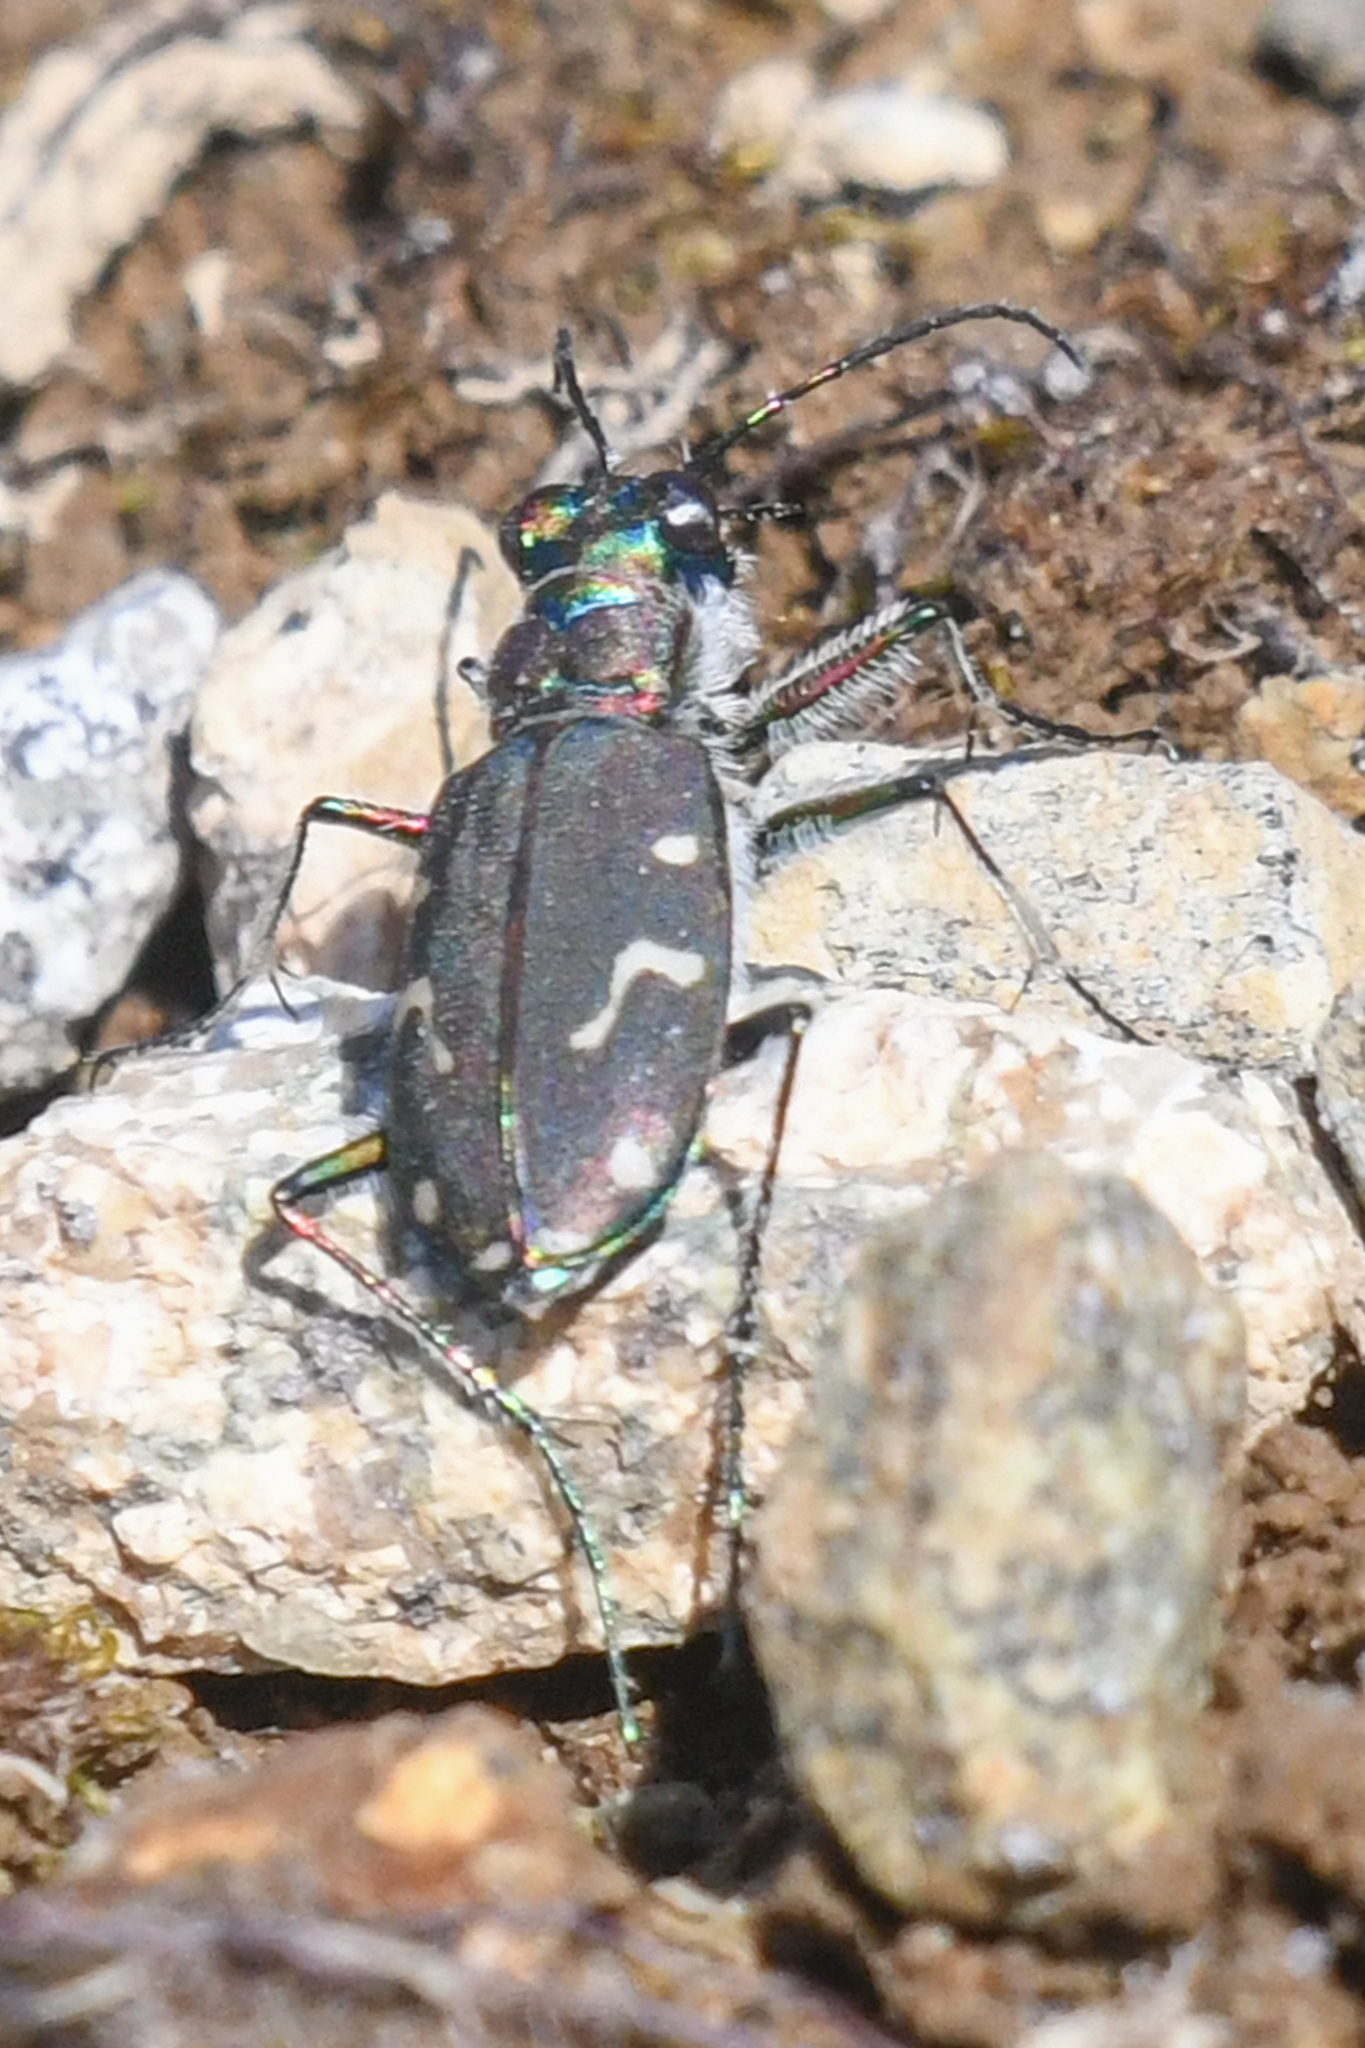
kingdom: Animalia
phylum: Arthropoda
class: Insecta
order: Coleoptera
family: Carabidae
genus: Cicindela
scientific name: Cicindela depressula
